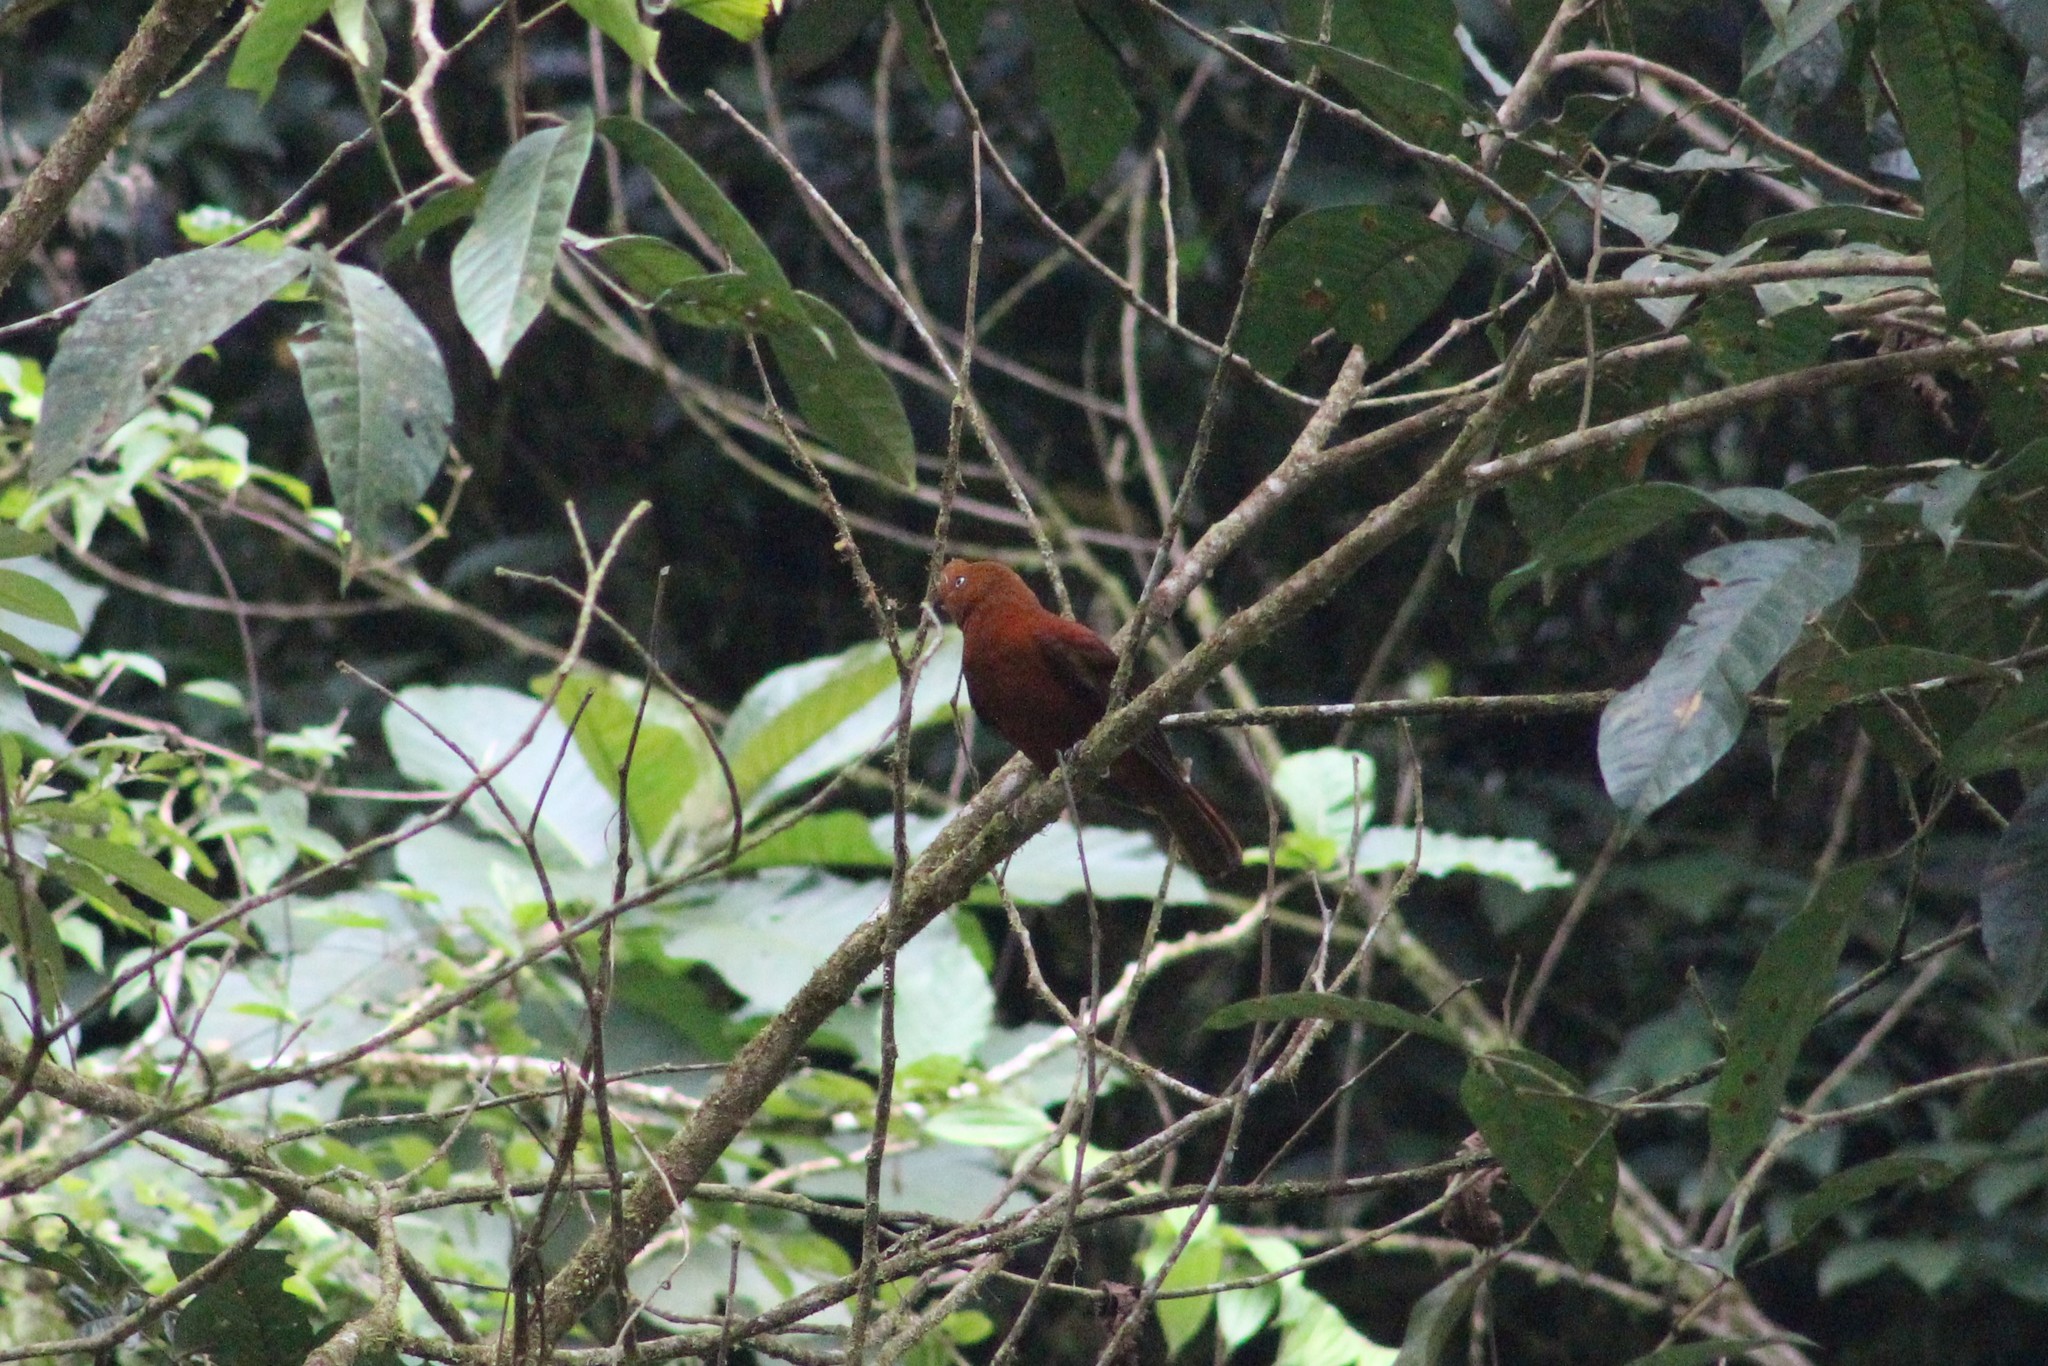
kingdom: Animalia
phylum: Chordata
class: Aves
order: Passeriformes
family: Cotingidae
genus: Rupicola
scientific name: Rupicola peruvianus
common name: Andean cock-of-the-rock
